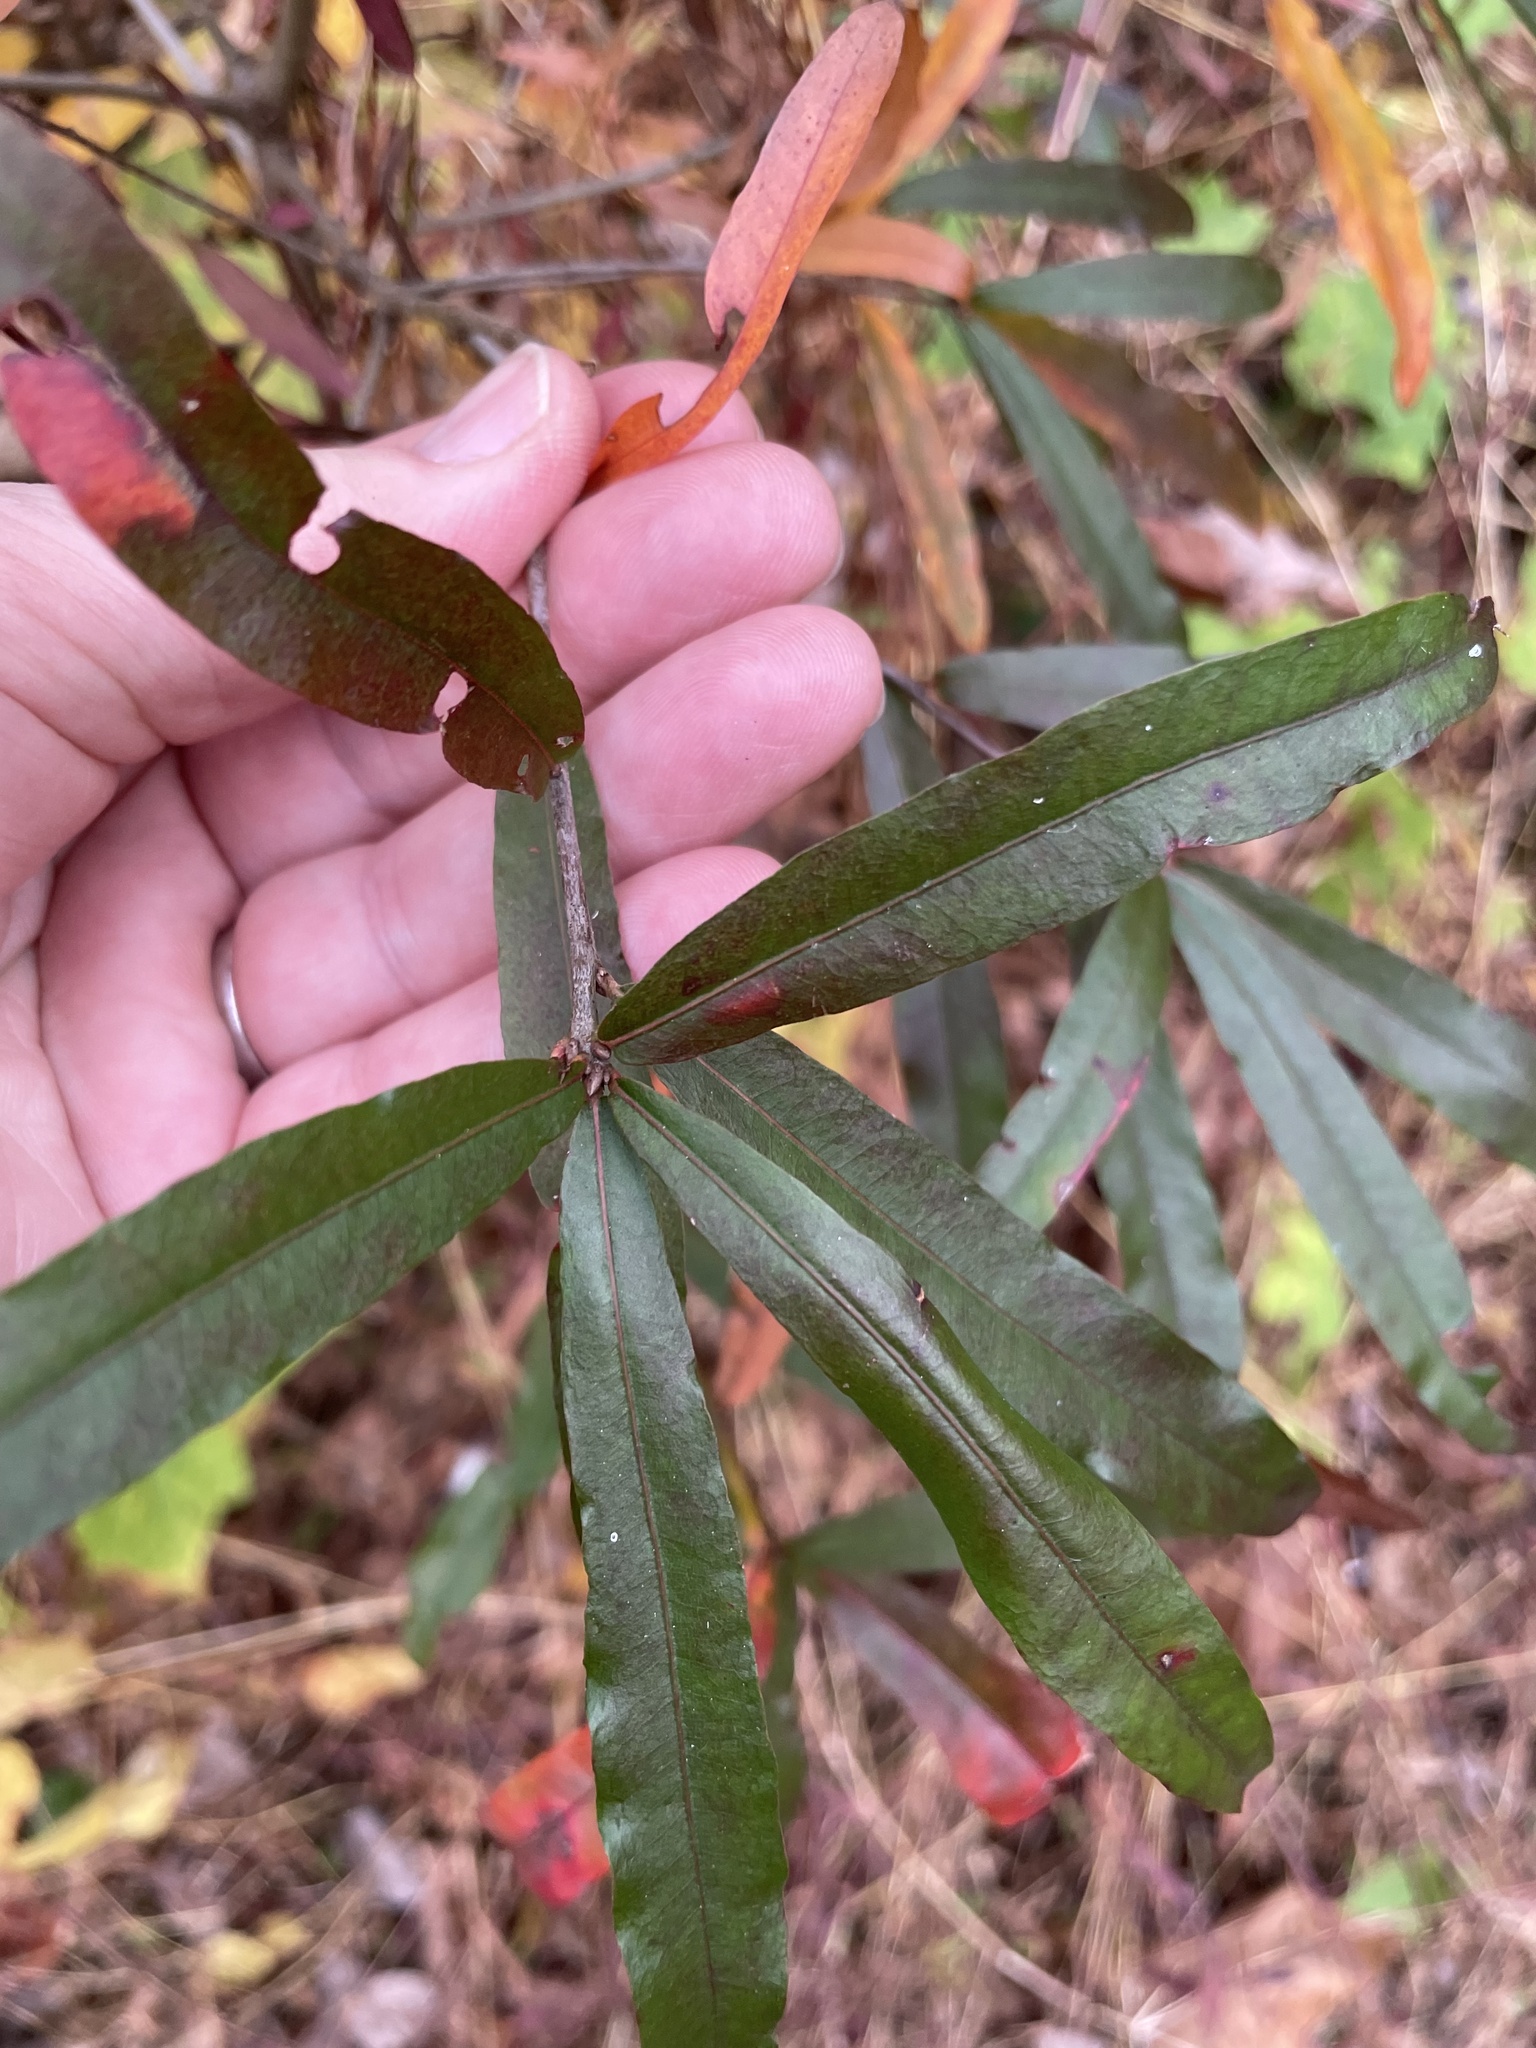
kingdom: Plantae
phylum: Tracheophyta
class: Magnoliopsida
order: Fagales
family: Fagaceae
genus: Quercus
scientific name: Quercus phellos
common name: Willow oak
